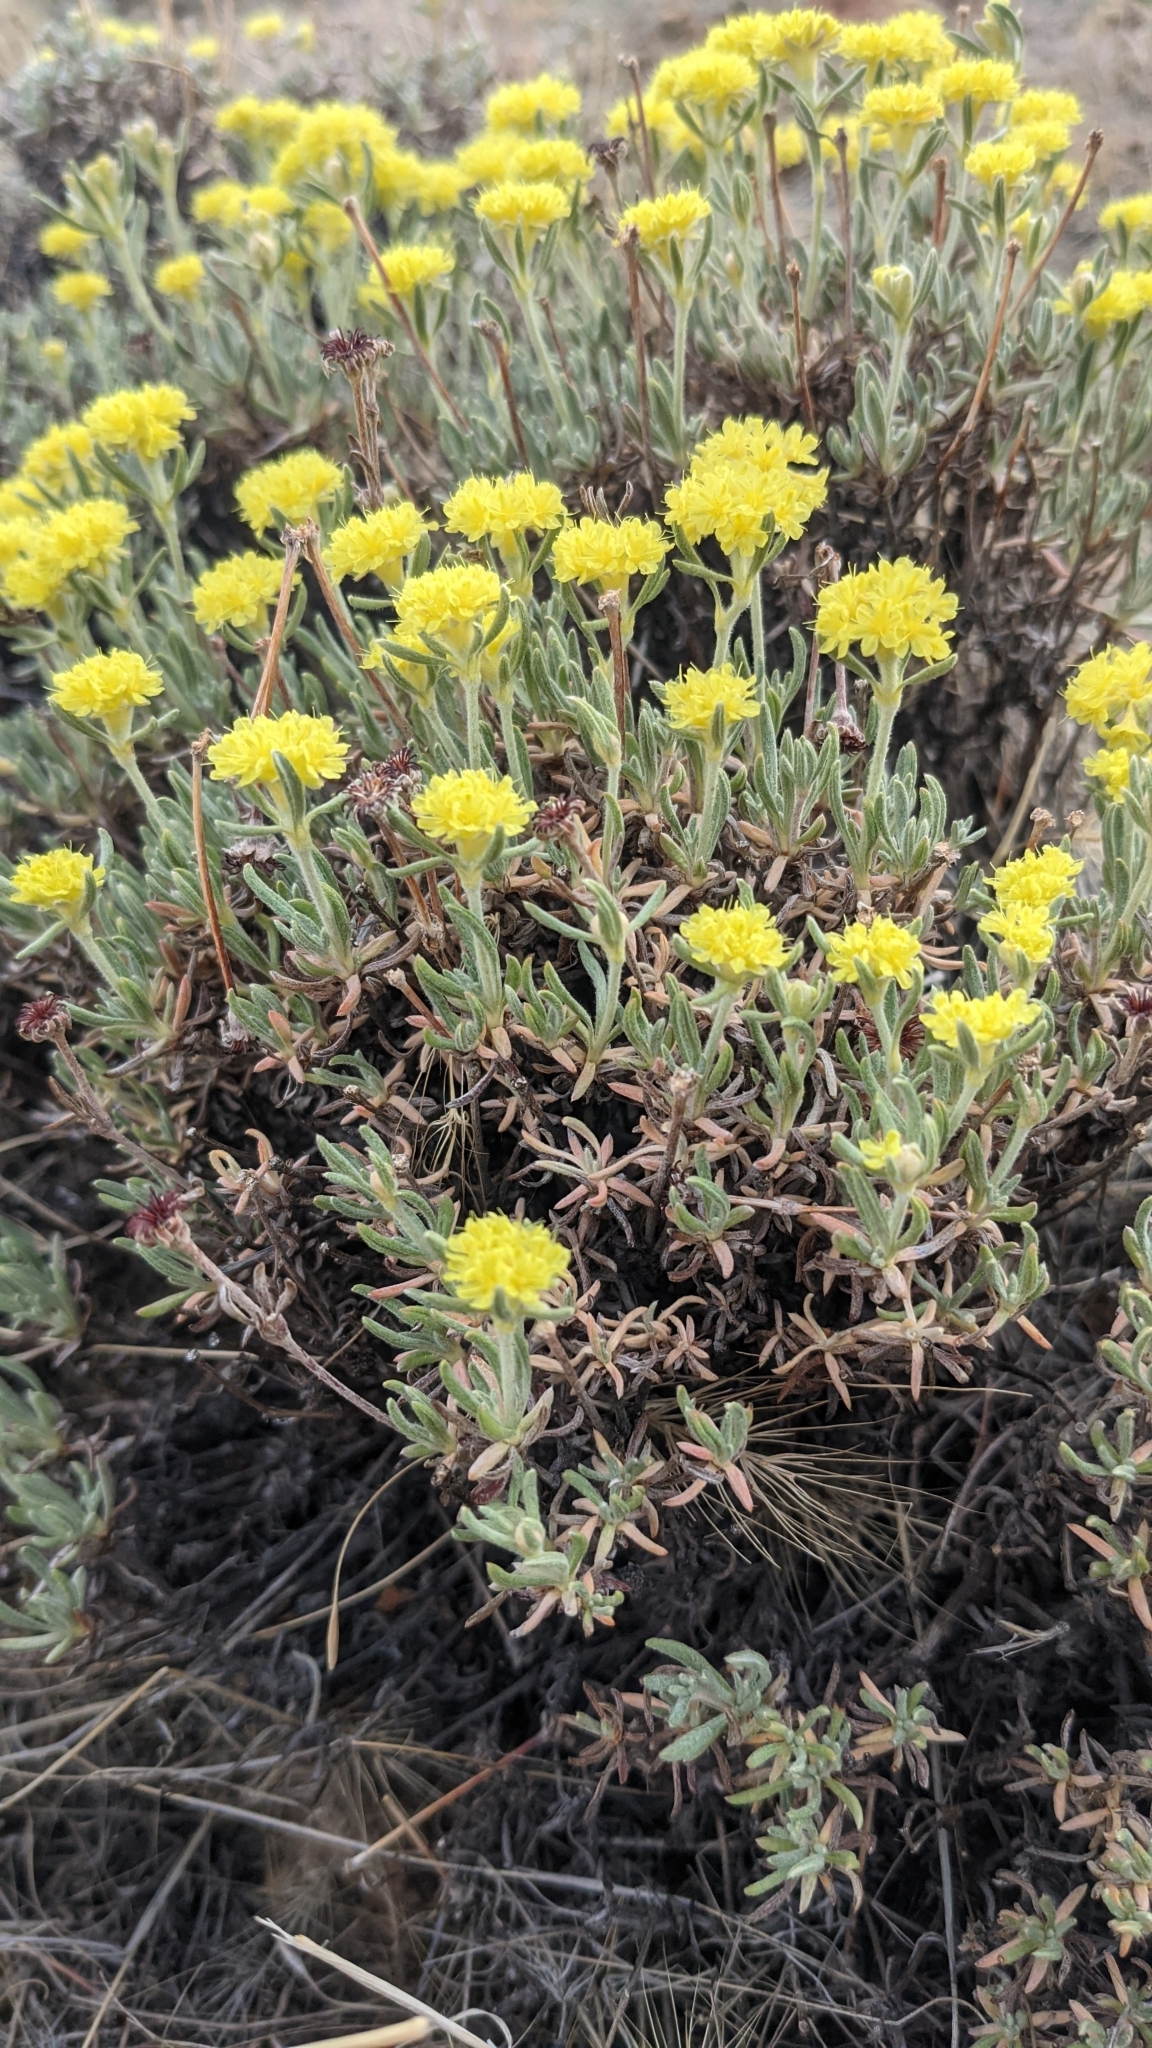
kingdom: Plantae
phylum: Tracheophyta
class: Magnoliopsida
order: Caryophyllales
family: Polygonaceae
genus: Eriogonum
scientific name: Eriogonum sphaerocephalum
